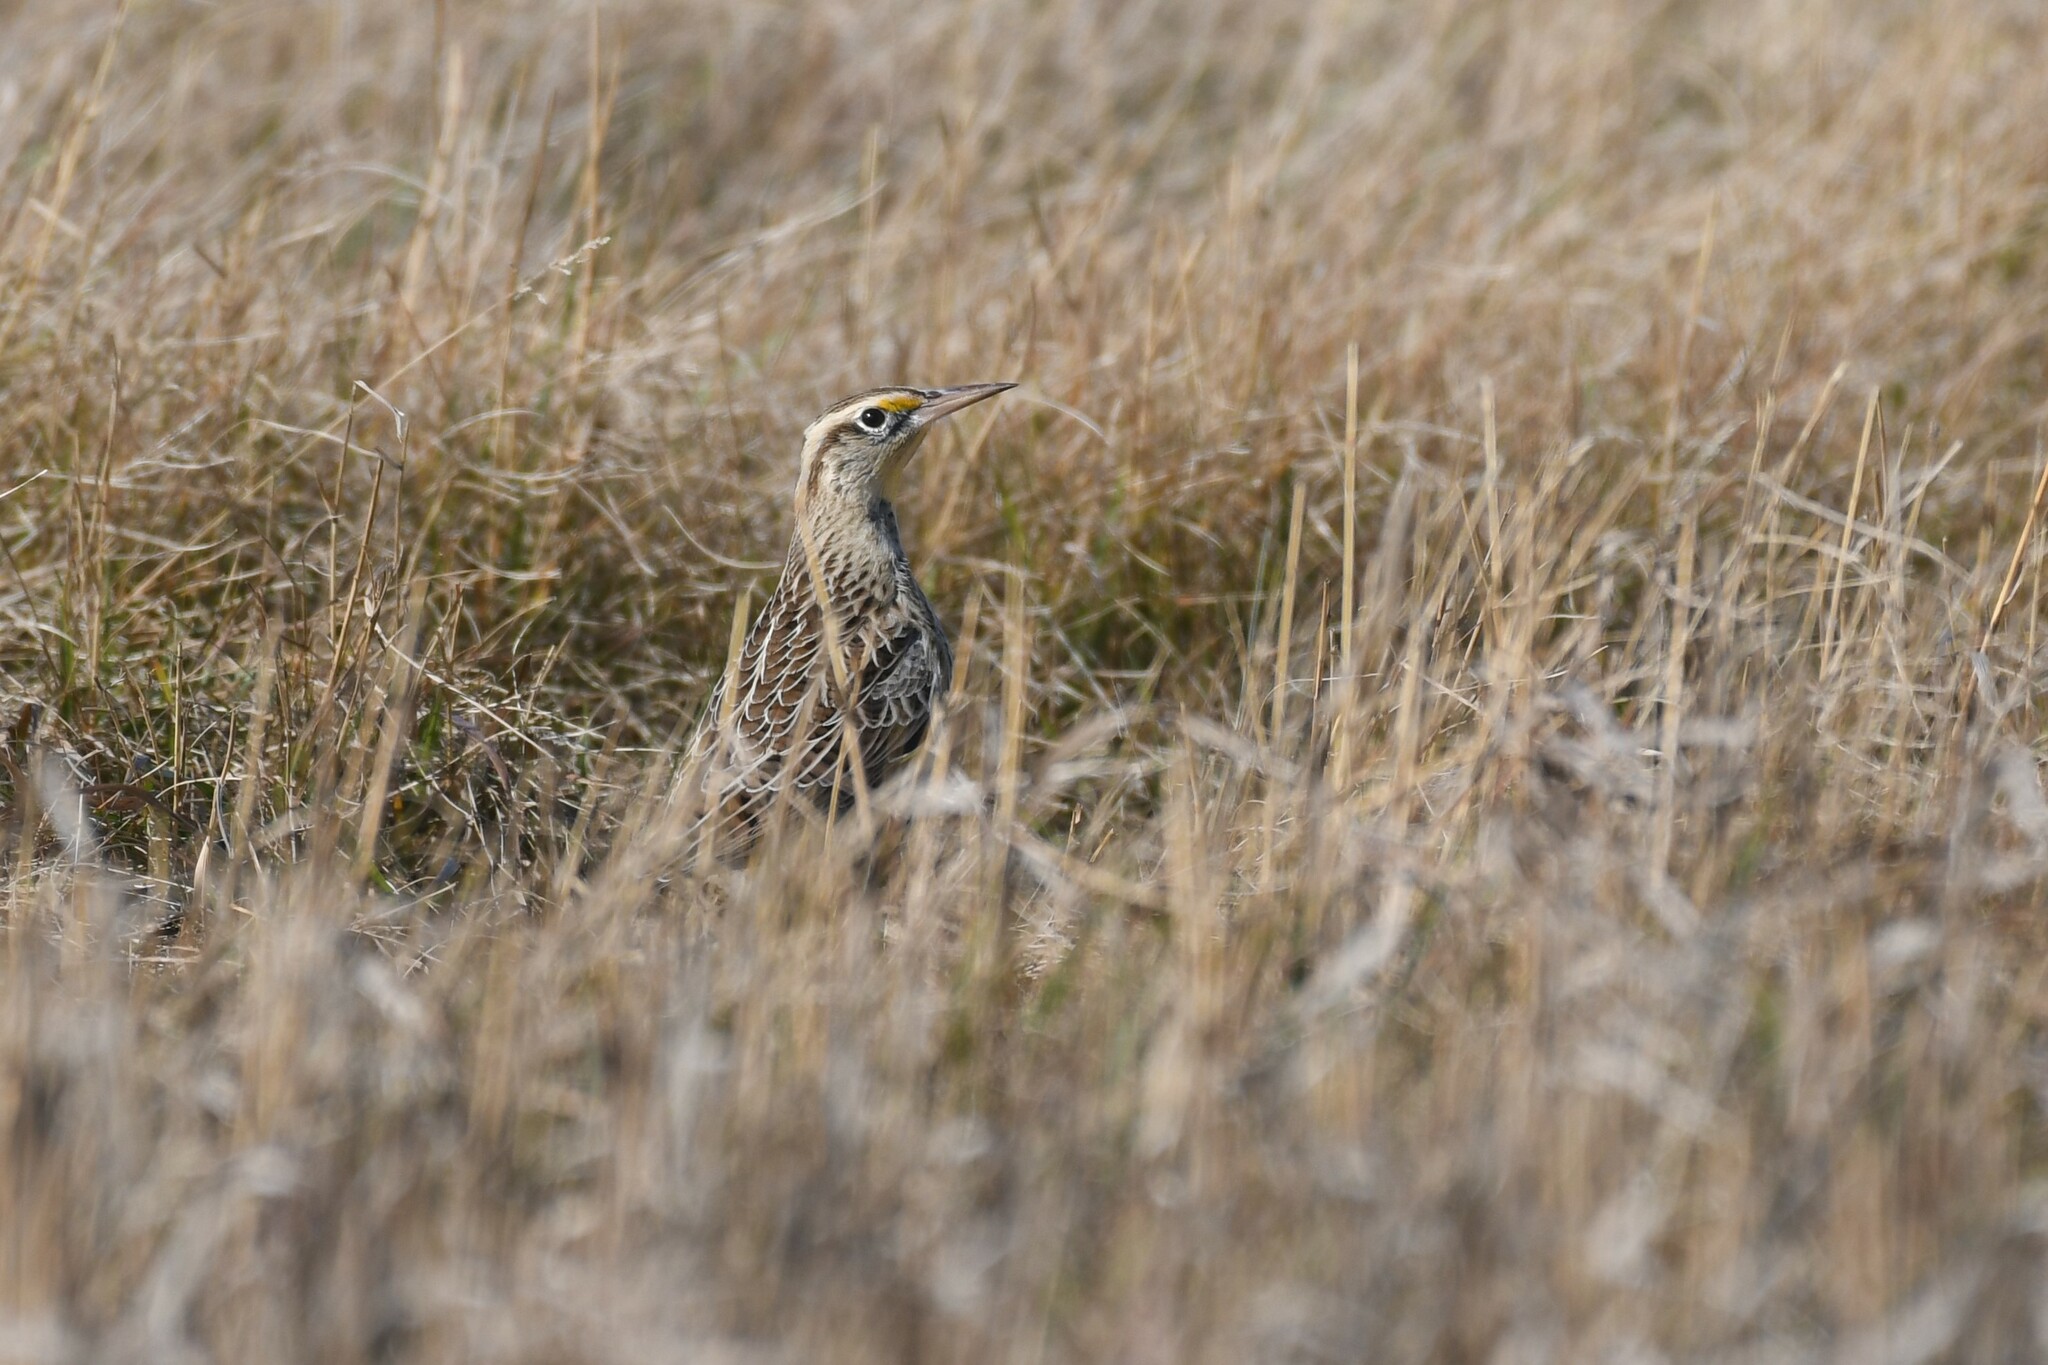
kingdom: Animalia
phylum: Chordata
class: Aves
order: Passeriformes
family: Icteridae
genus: Sturnella
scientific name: Sturnella neglecta
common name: Western meadowlark
